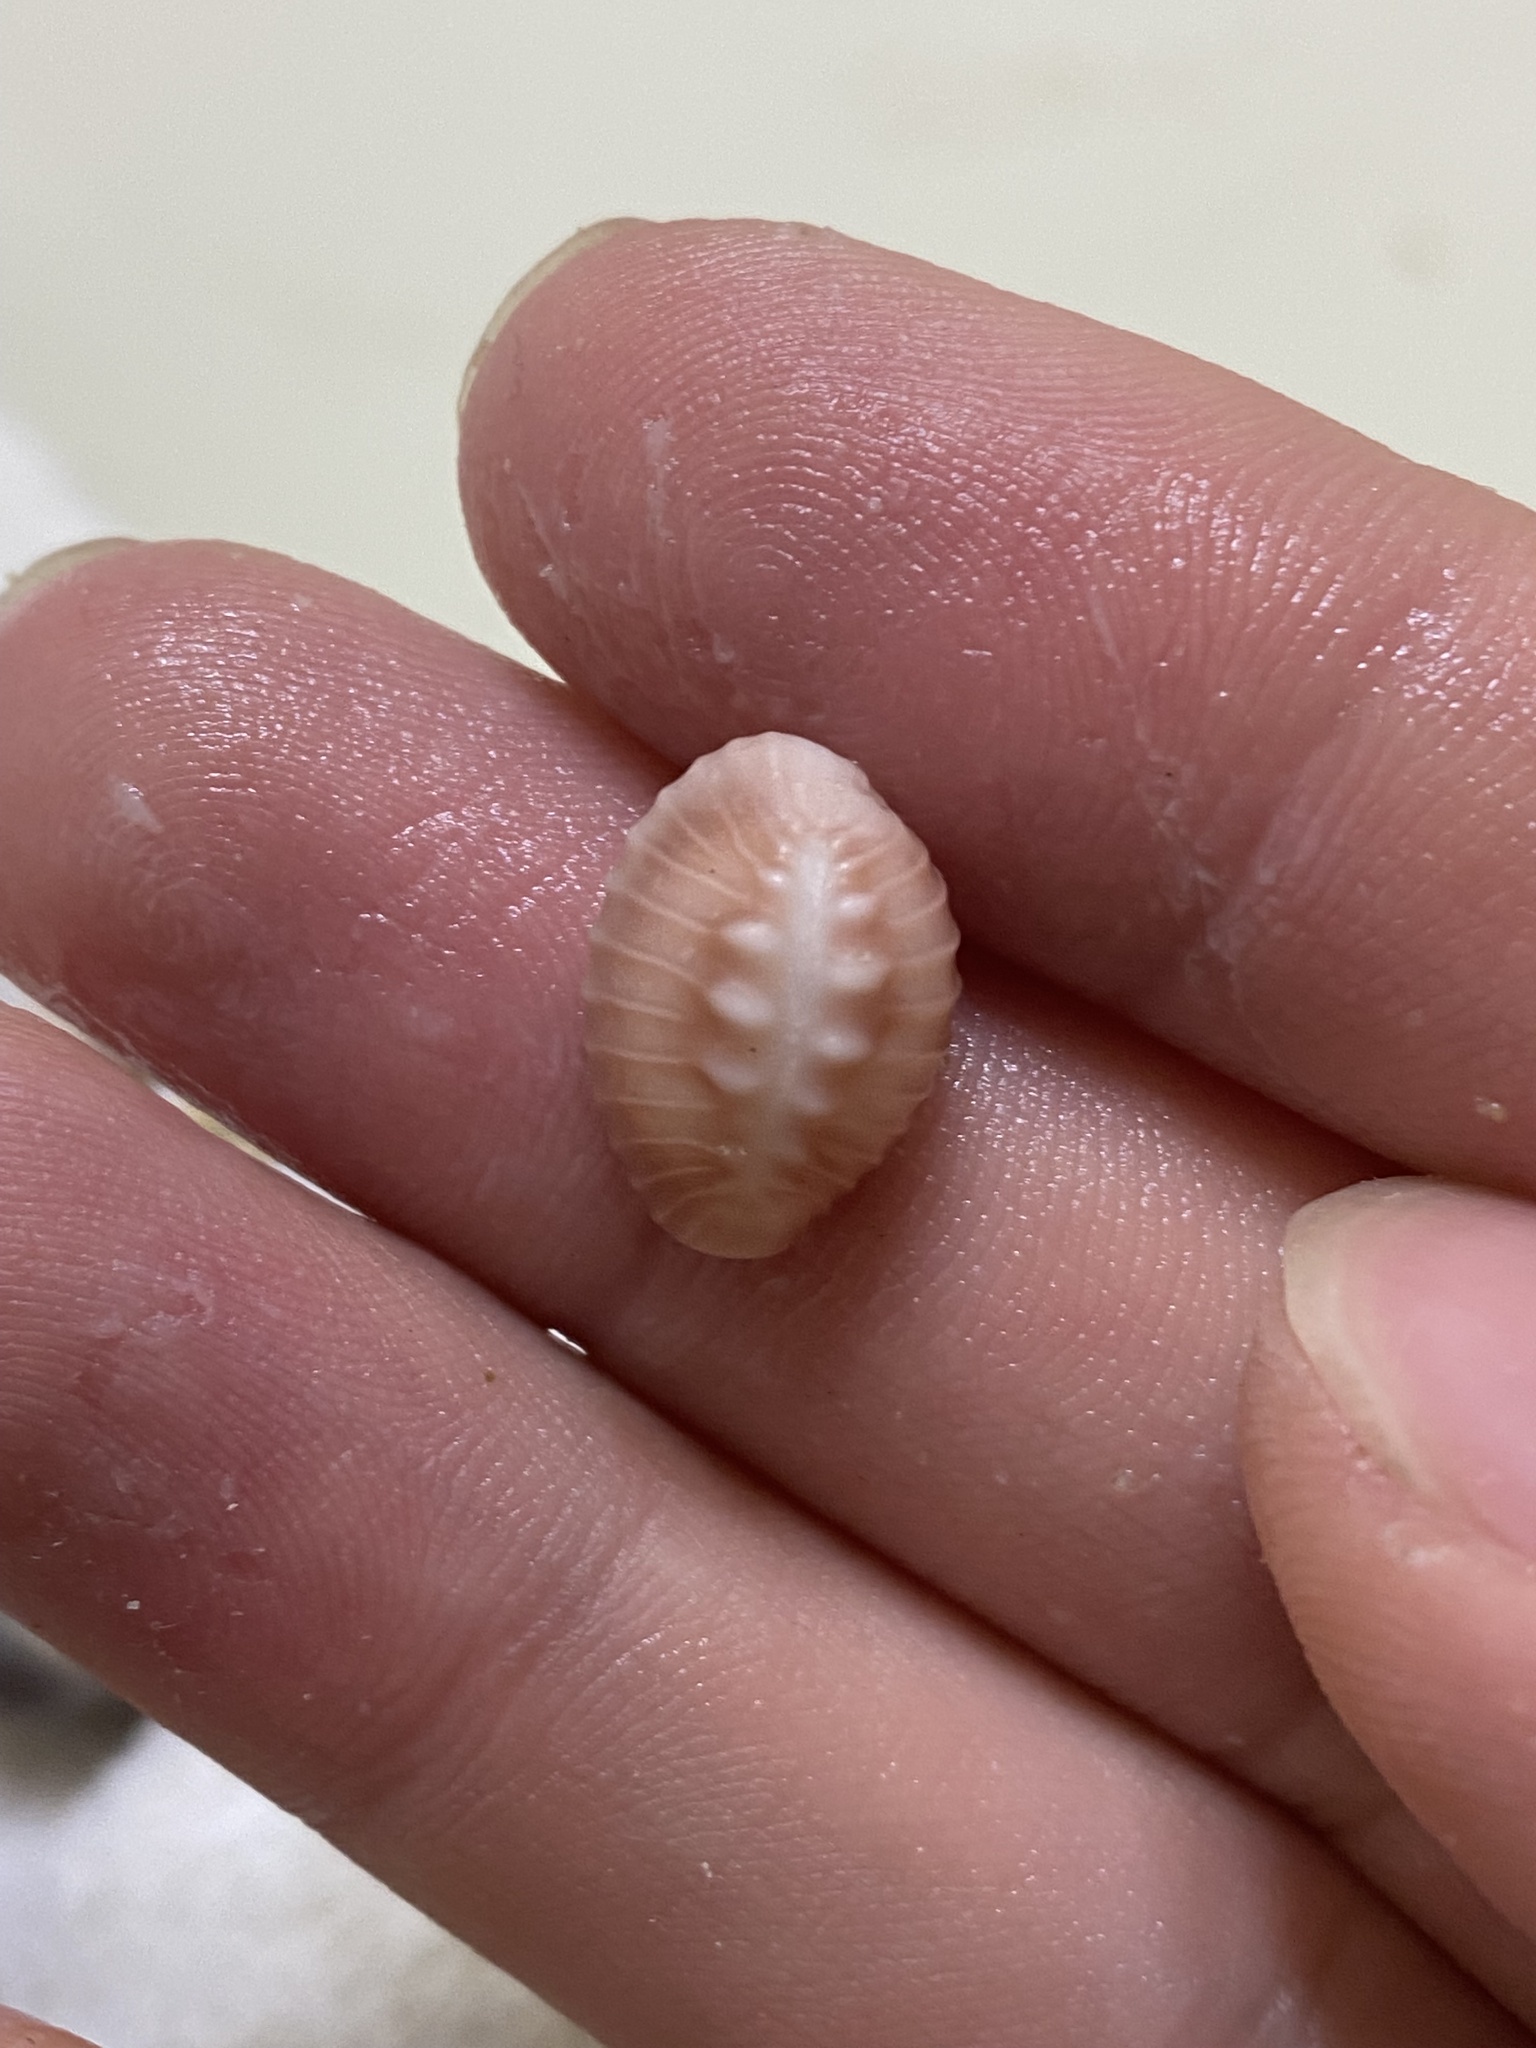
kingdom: Animalia
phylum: Mollusca
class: Gastropoda
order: Littorinimorpha
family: Triviidae
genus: Pusula
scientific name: Pusula solandri
